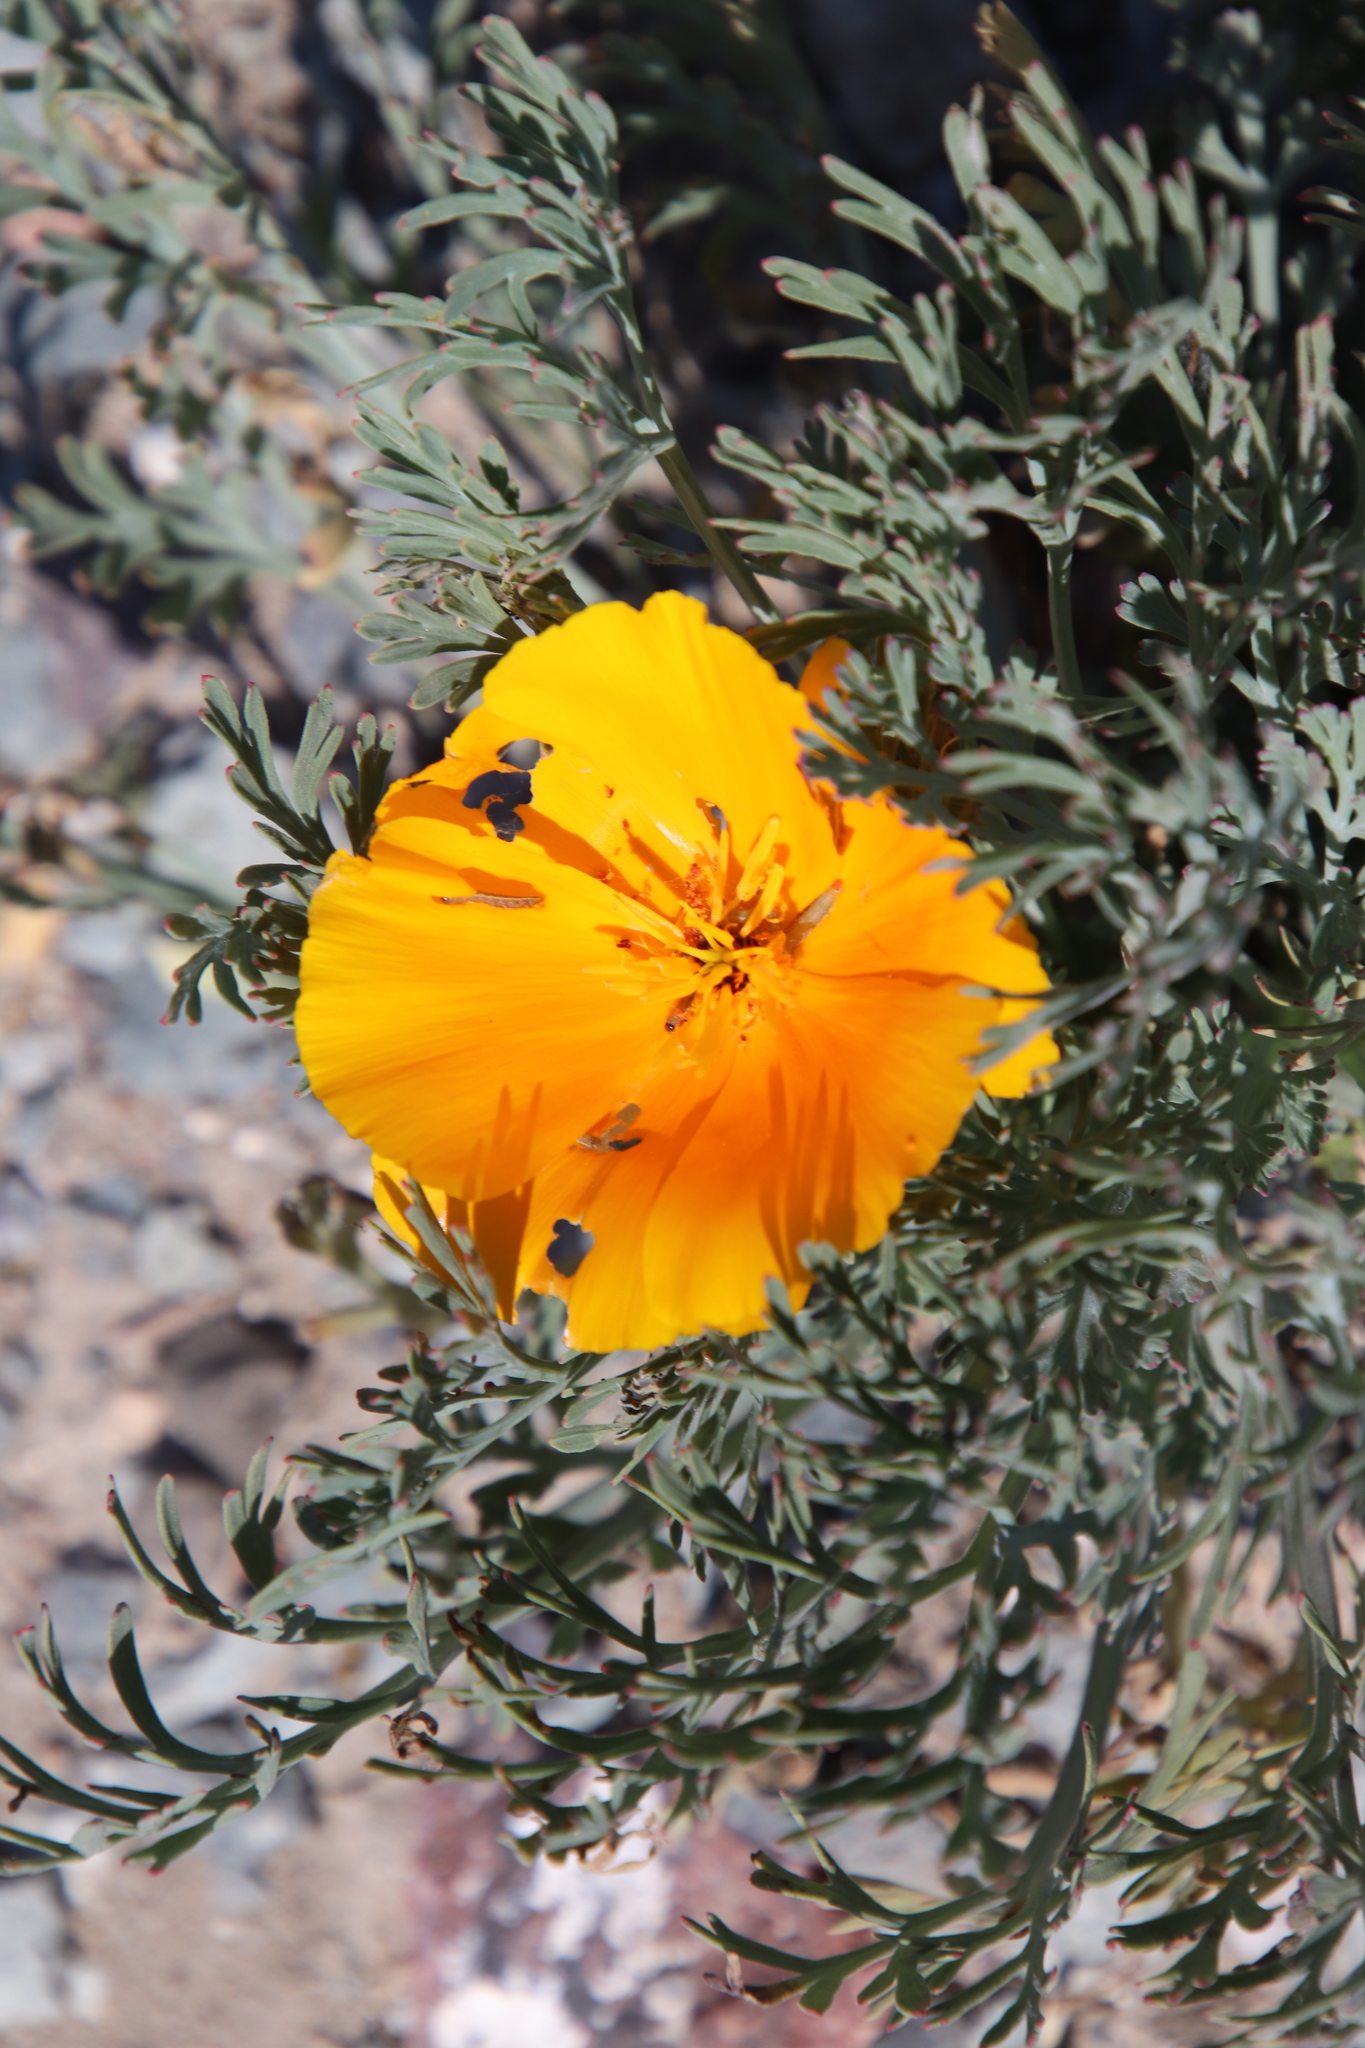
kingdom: Plantae
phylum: Tracheophyta
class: Magnoliopsida
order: Ranunculales
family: Papaveraceae
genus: Eschscholzia
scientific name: Eschscholzia californica
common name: California poppy
